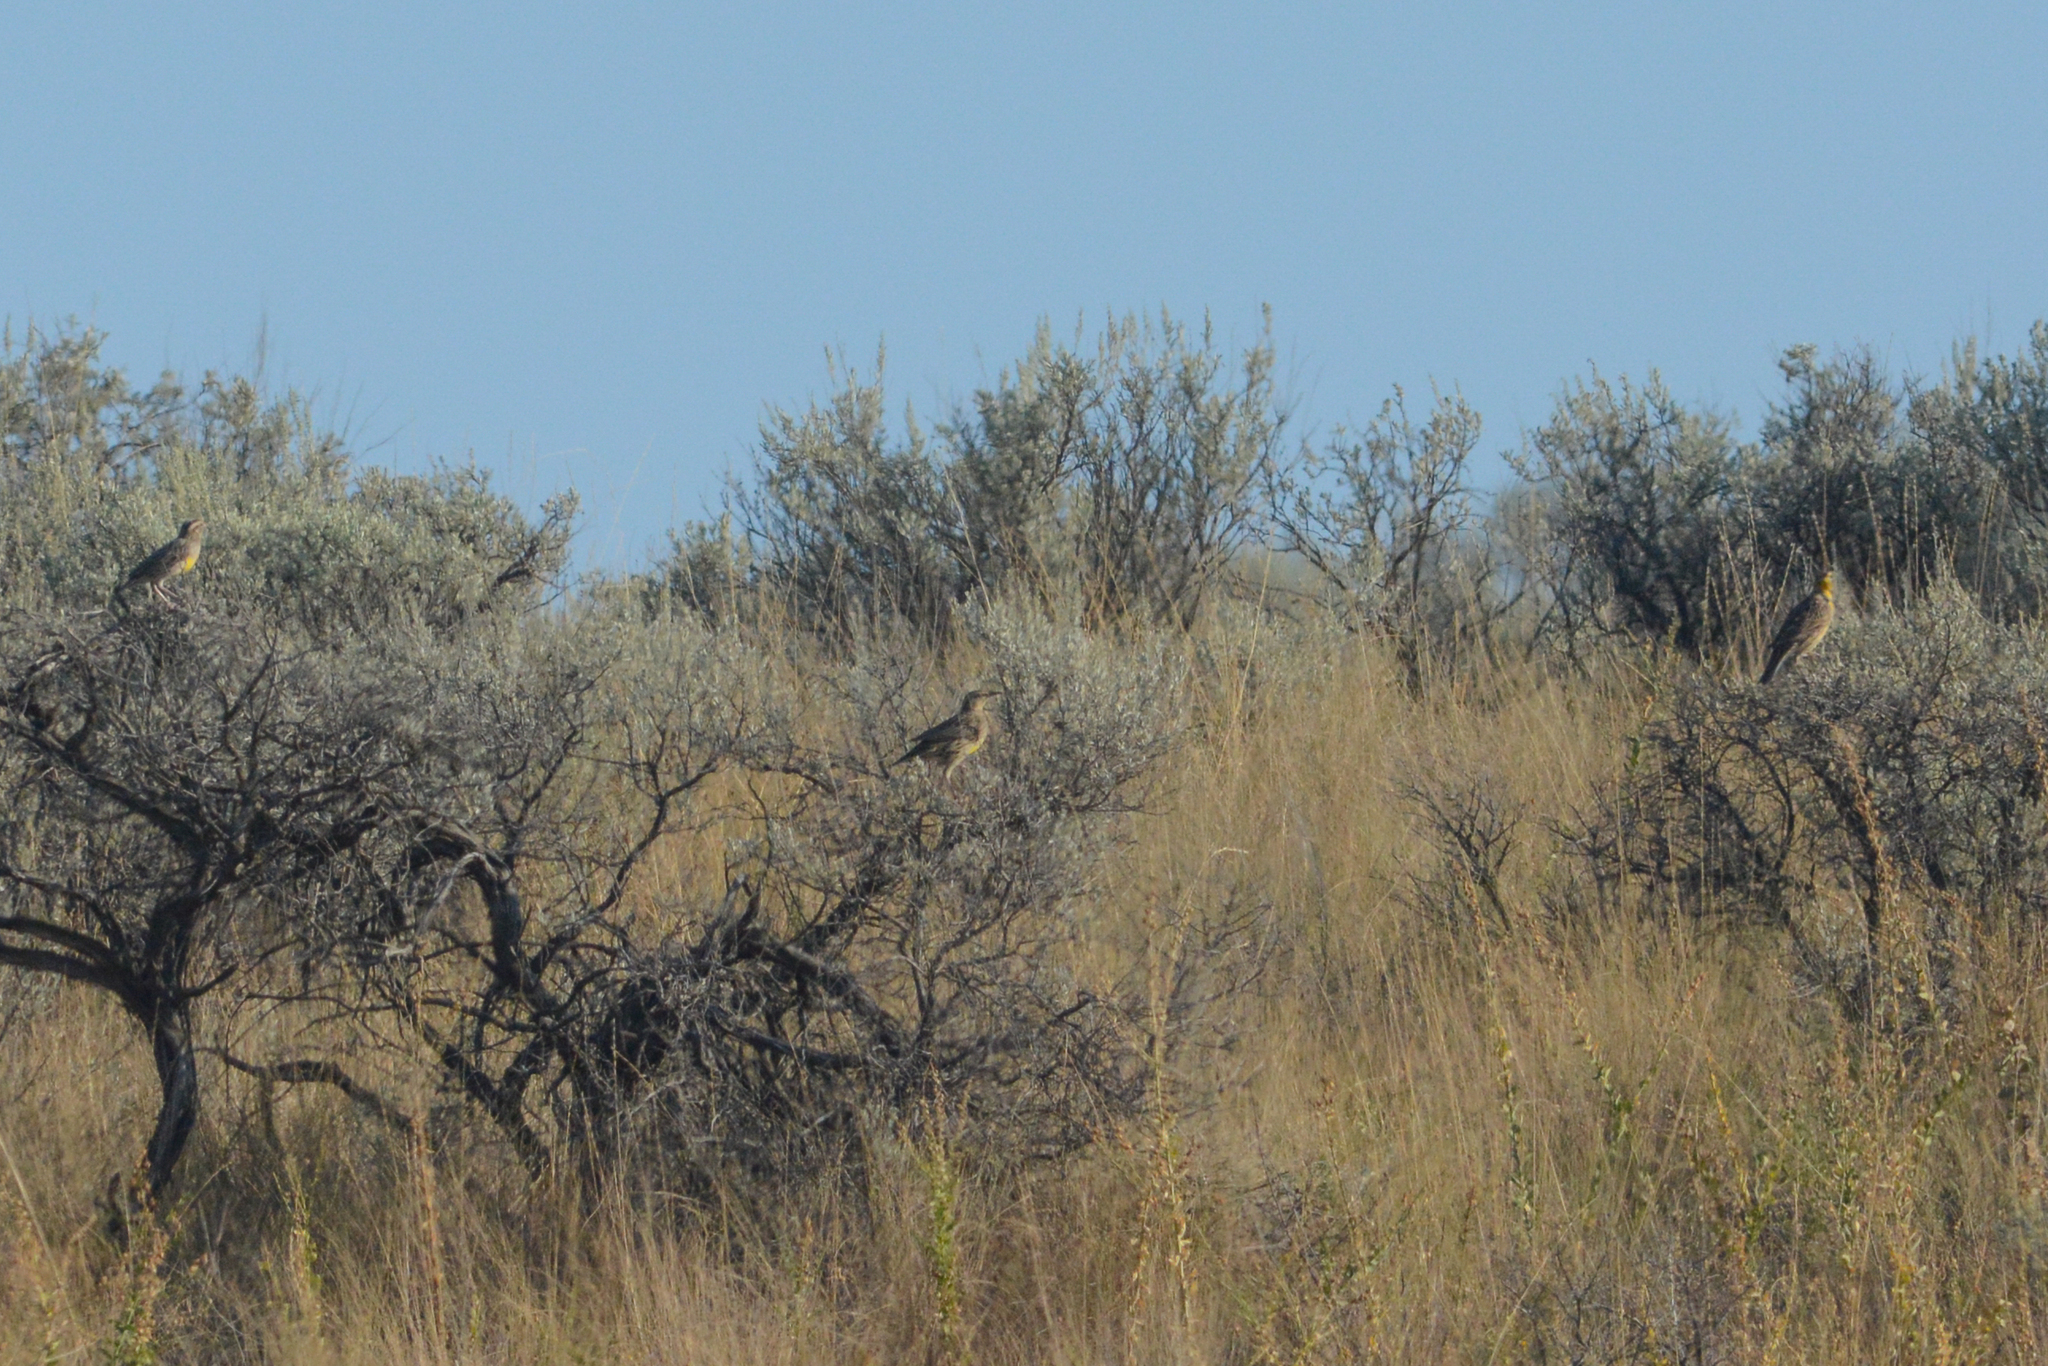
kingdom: Animalia
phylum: Chordata
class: Aves
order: Passeriformes
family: Icteridae
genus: Sturnella
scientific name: Sturnella neglecta
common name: Western meadowlark
